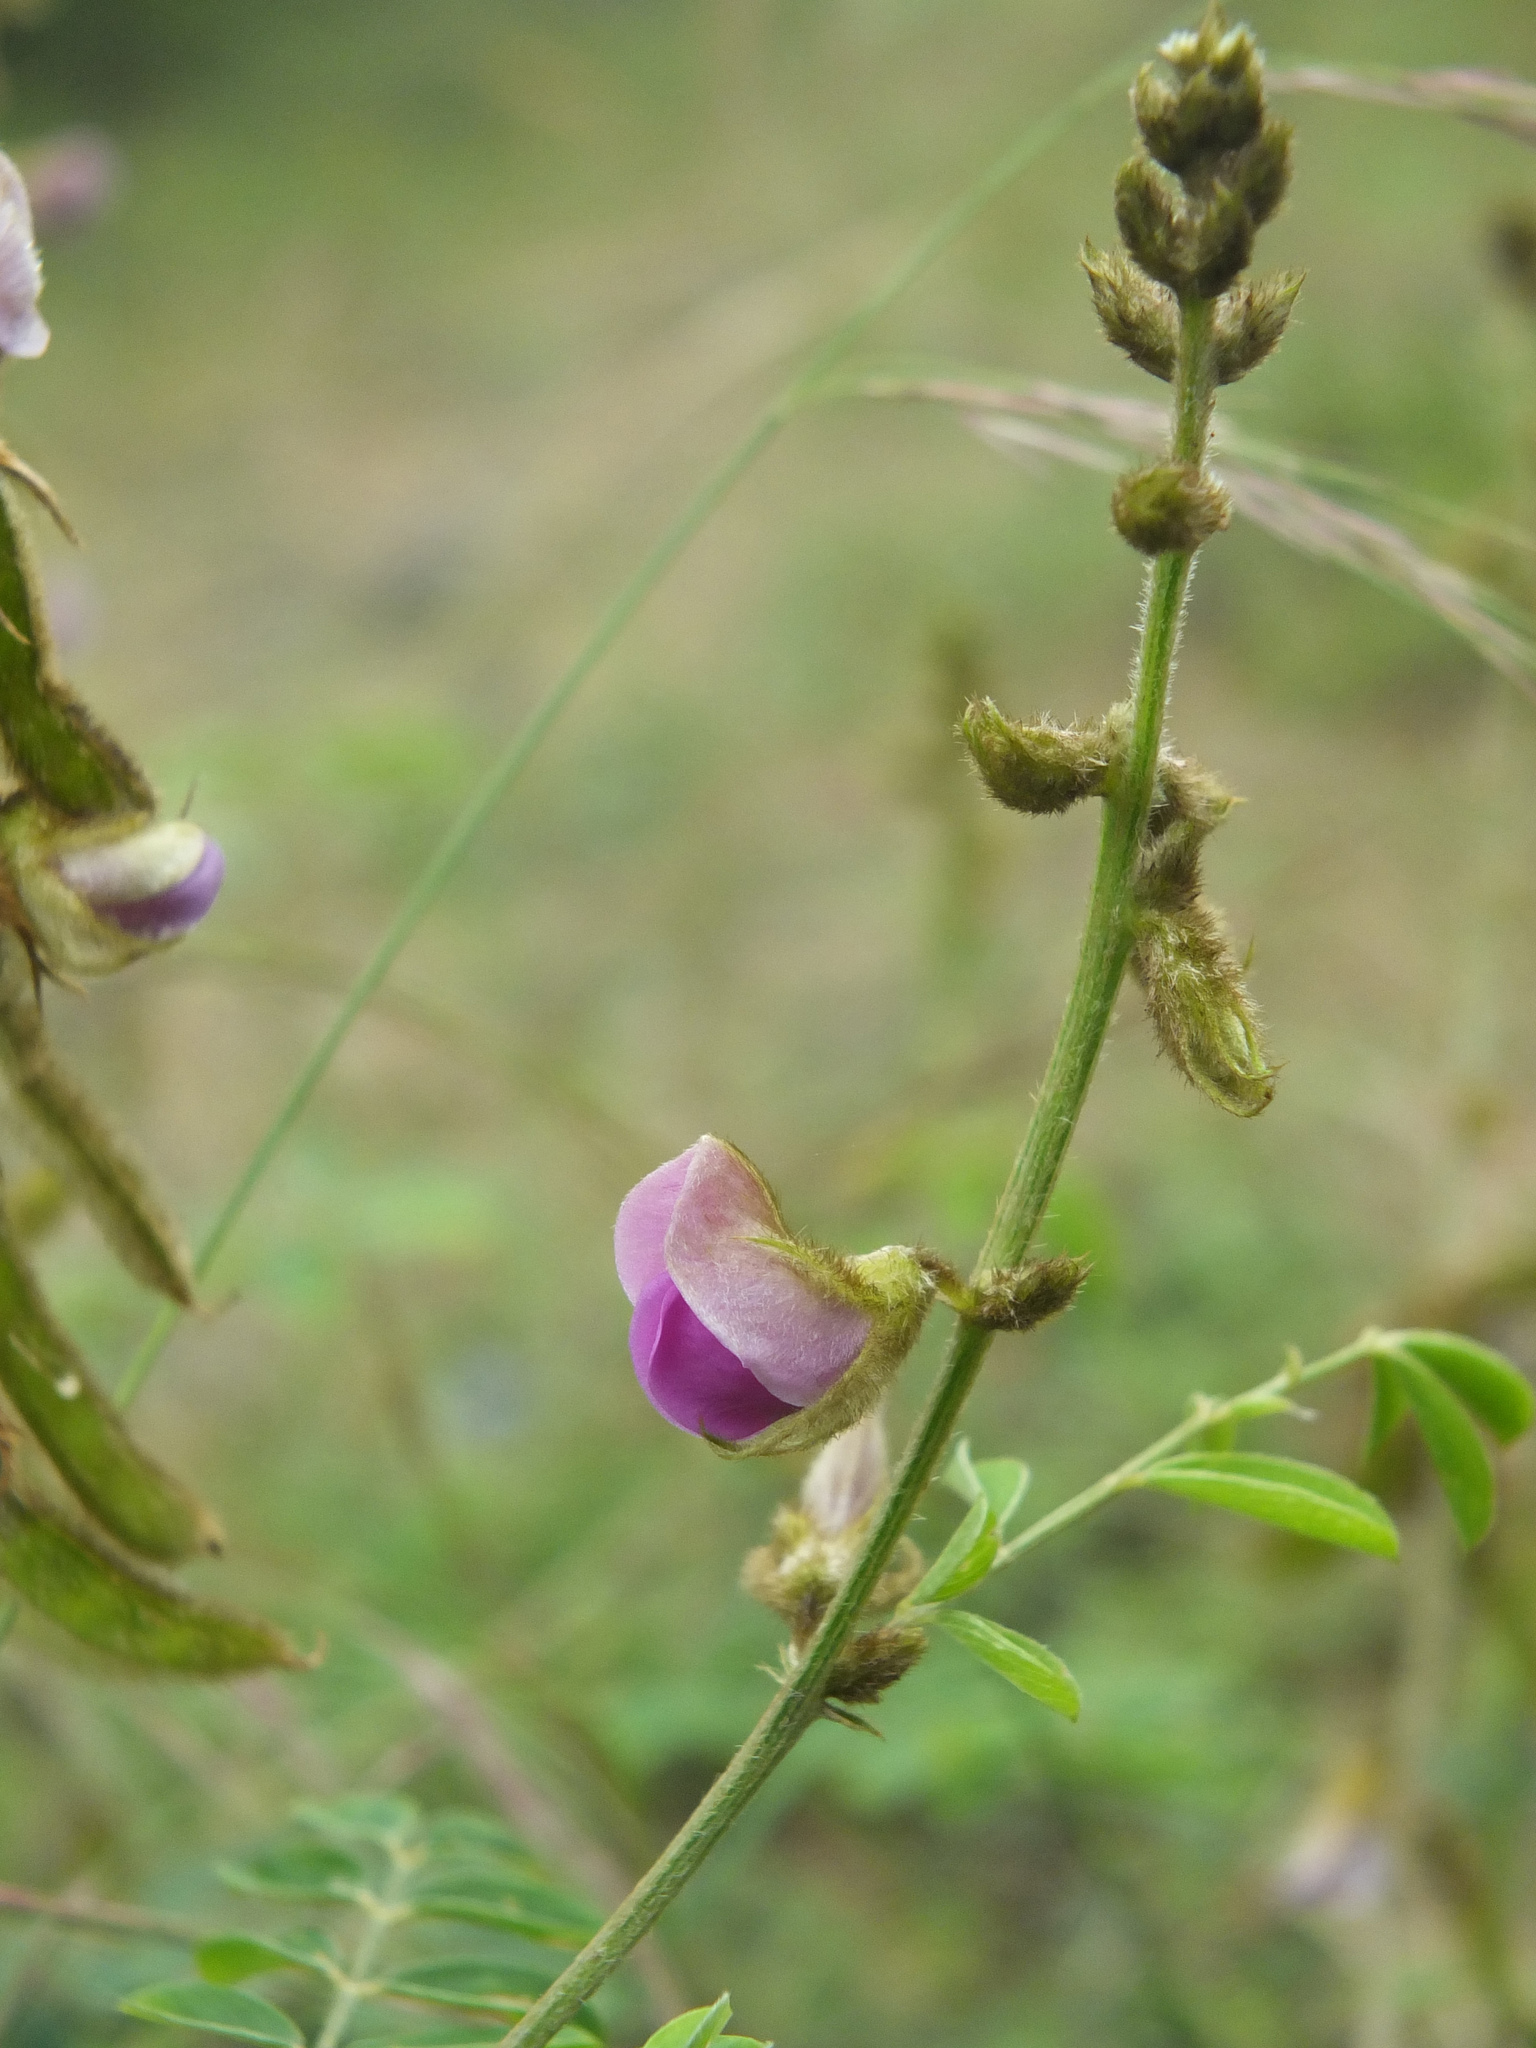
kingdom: Plantae
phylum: Tracheophyta
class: Magnoliopsida
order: Fabales
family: Fabaceae
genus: Tephrosia
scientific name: Tephrosia villosa
